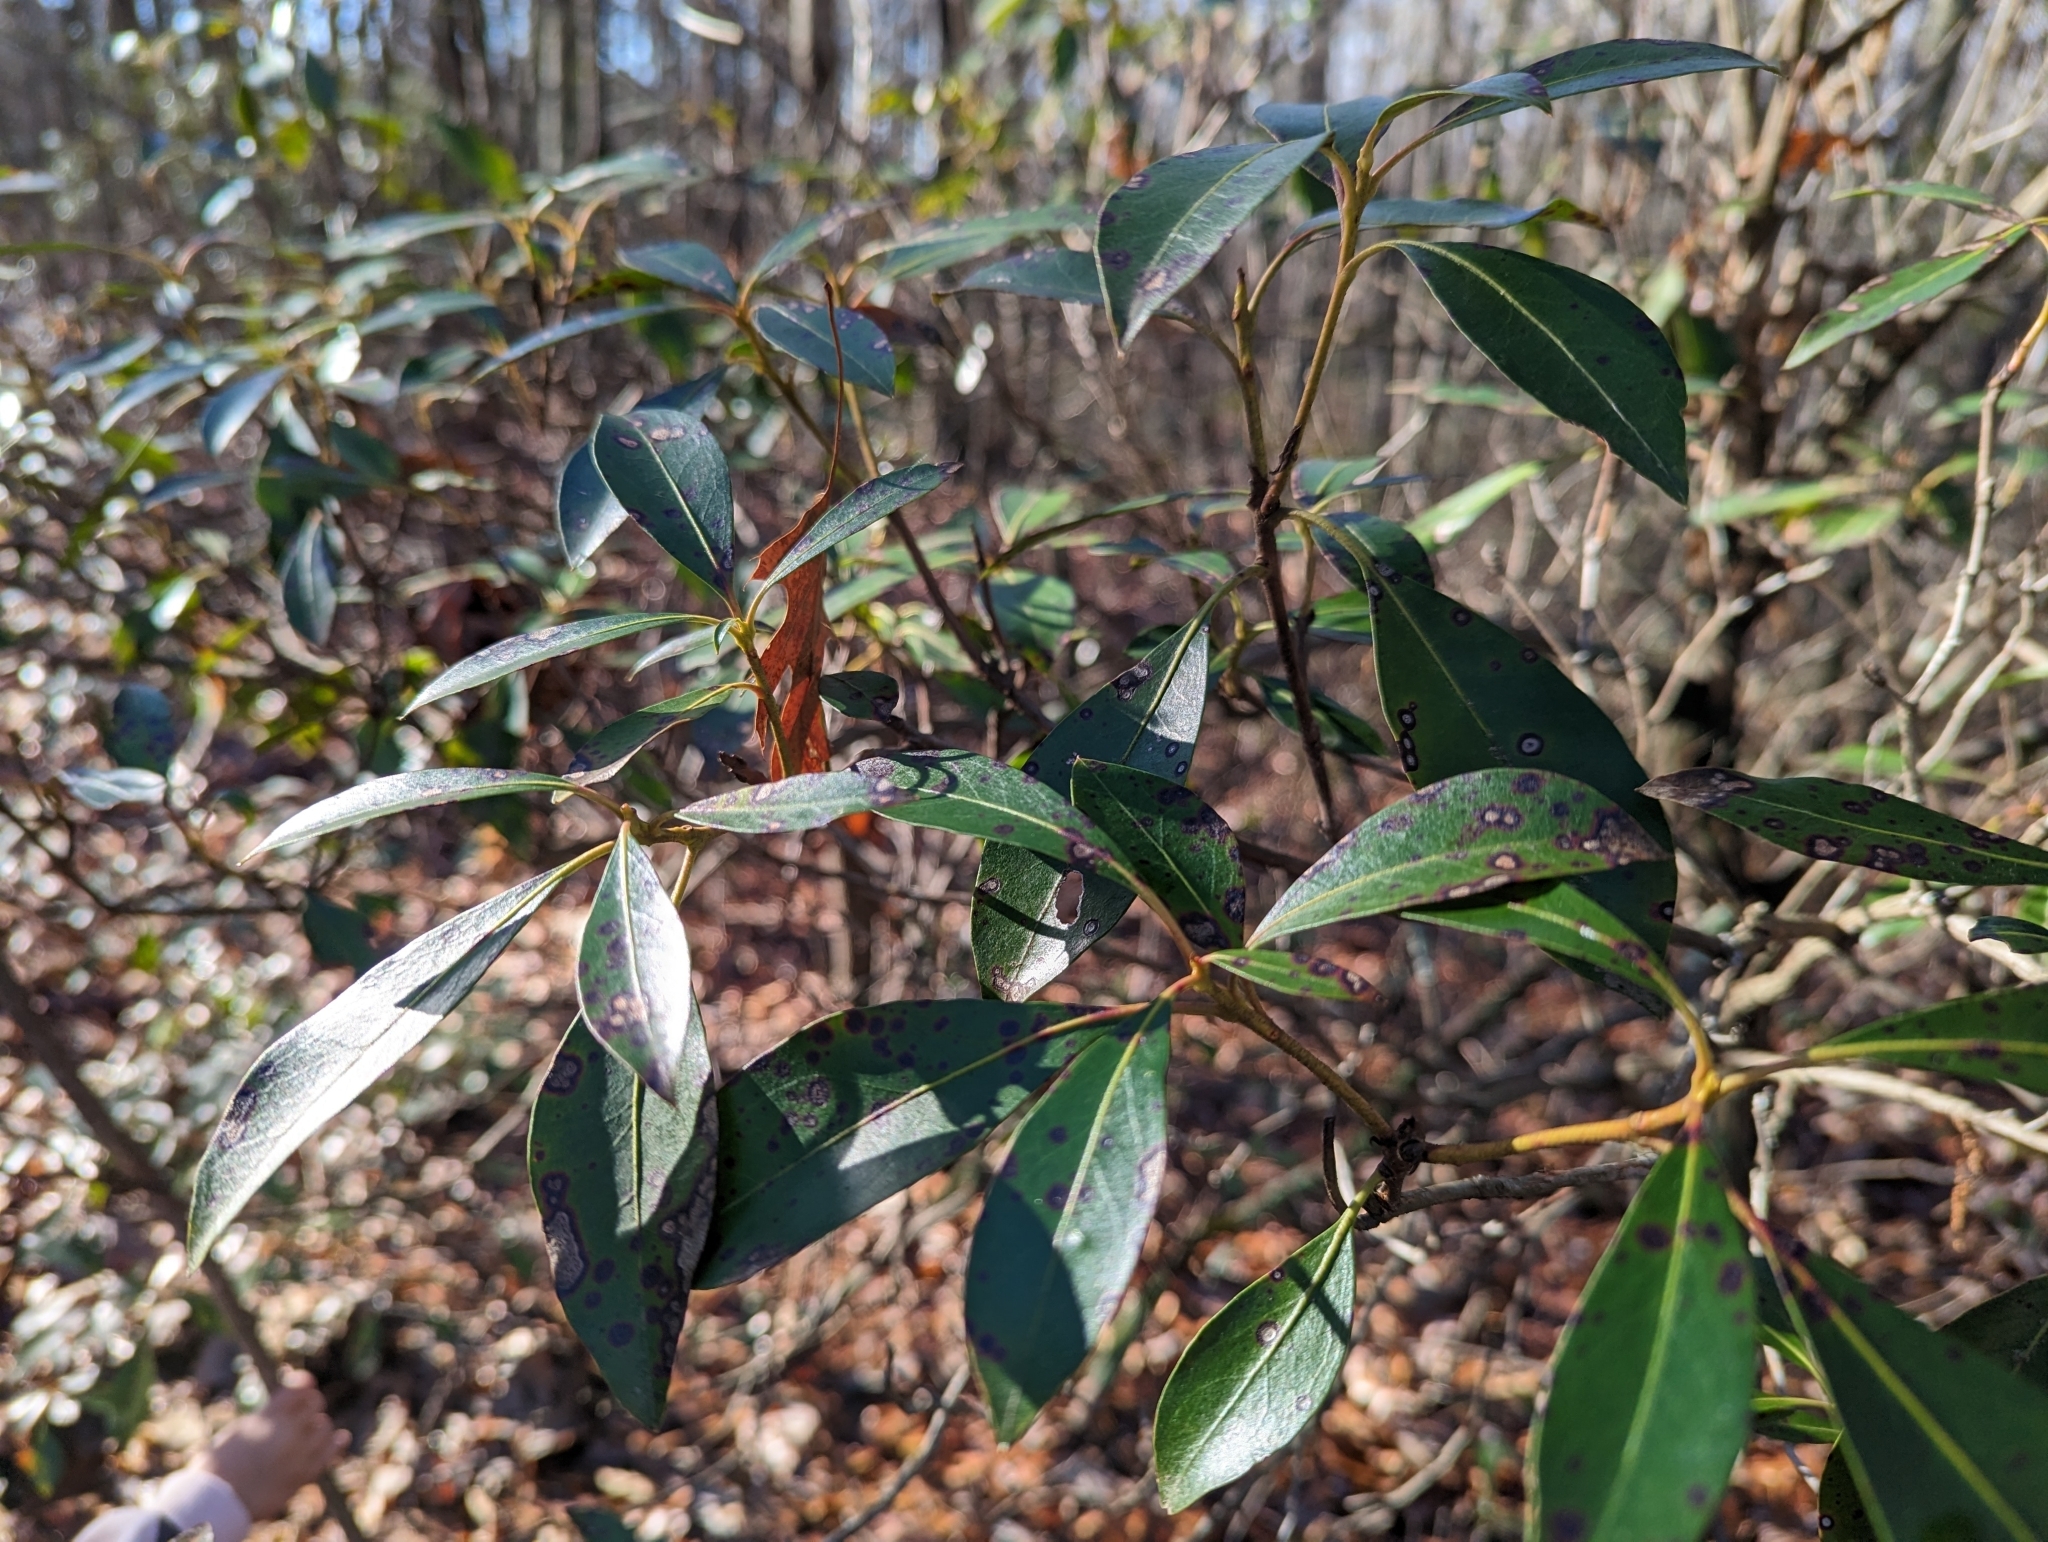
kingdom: Plantae
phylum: Tracheophyta
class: Magnoliopsida
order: Ericales
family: Ericaceae
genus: Kalmia
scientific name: Kalmia latifolia
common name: Mountain-laurel
